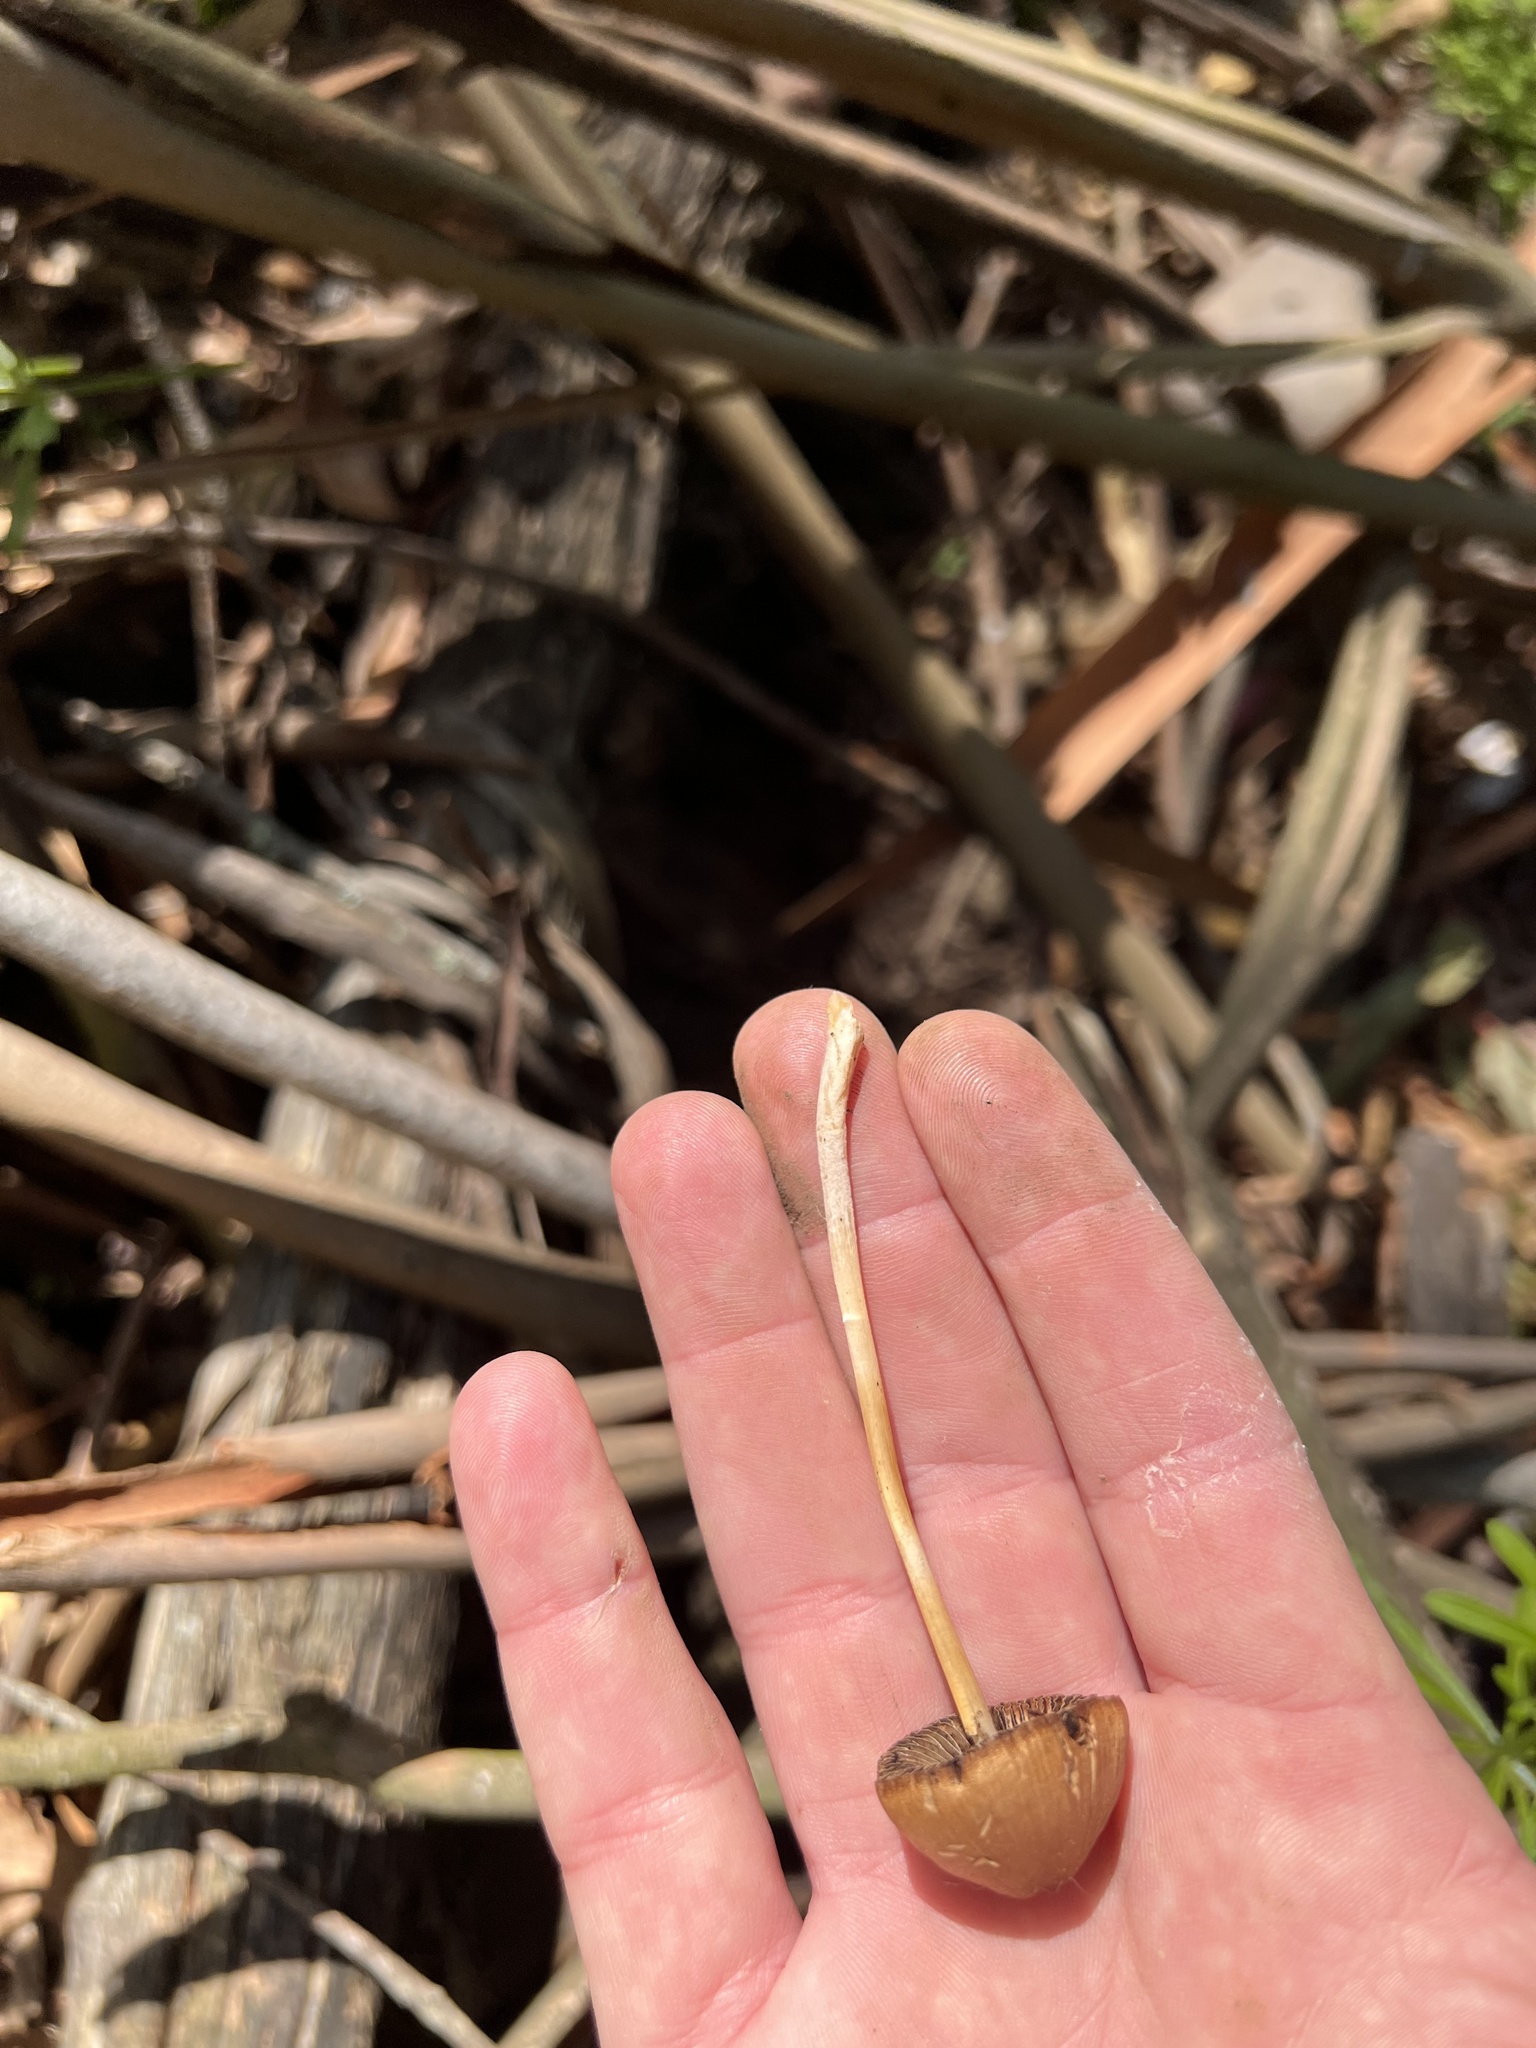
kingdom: Fungi
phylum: Basidiomycota
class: Agaricomycetes
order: Agaricales
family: Psathyrellaceae
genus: Parasola
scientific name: Parasola conopilea
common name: Conical brittlestem
